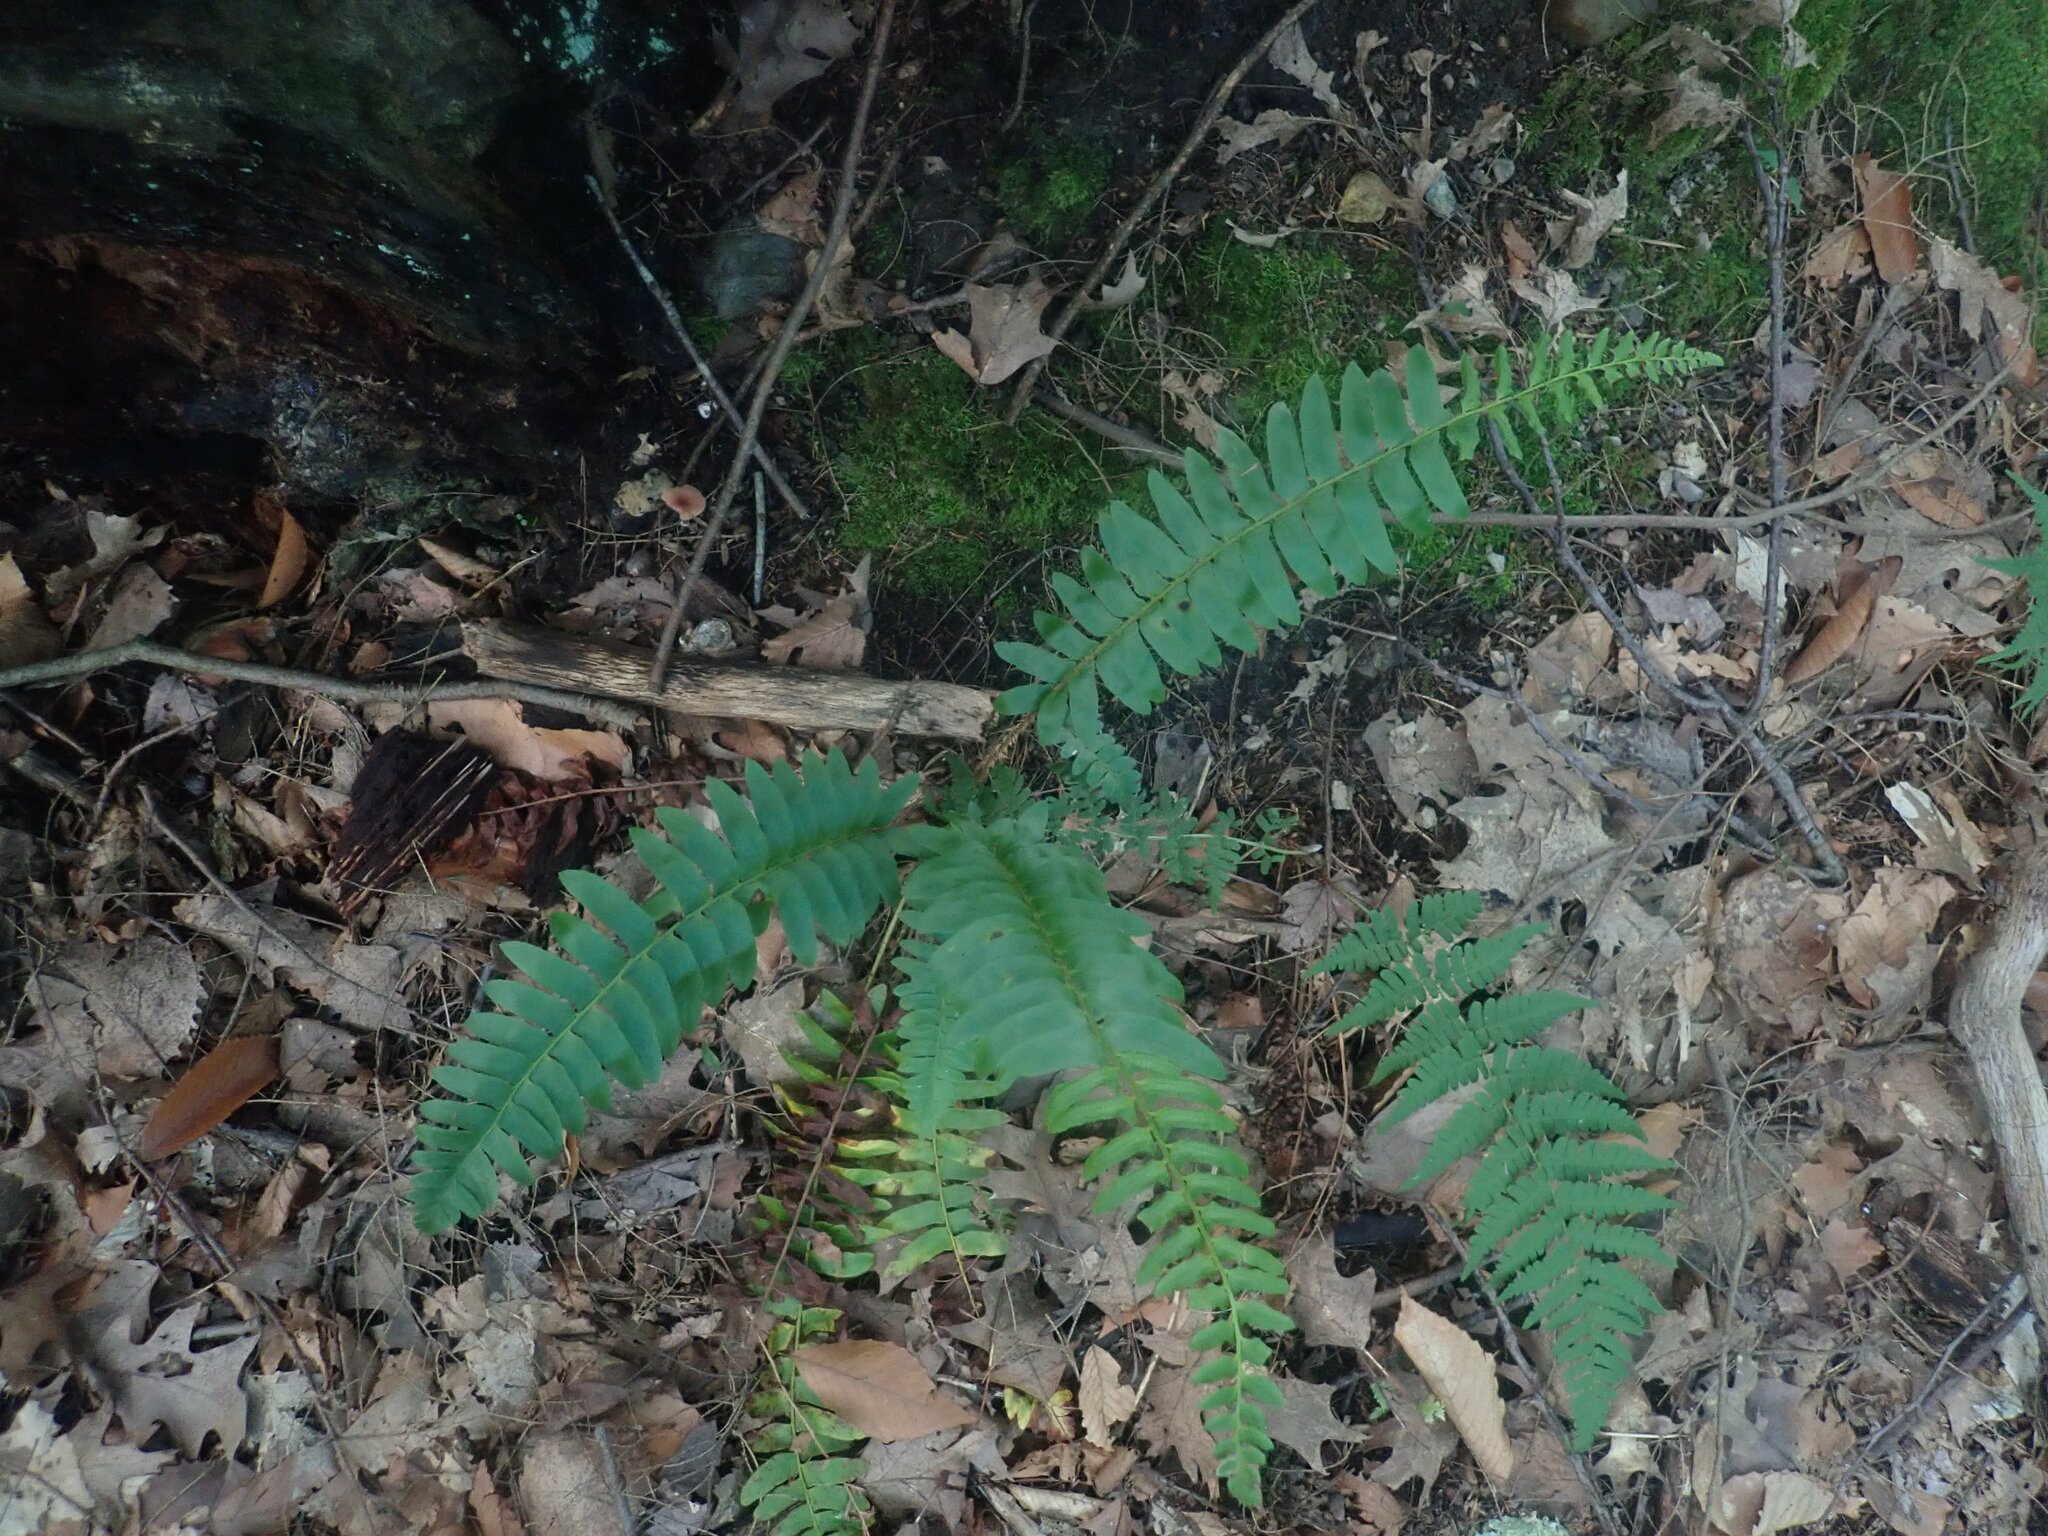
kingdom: Plantae
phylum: Tracheophyta
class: Polypodiopsida
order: Polypodiales
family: Dryopteridaceae
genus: Polystichum
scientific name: Polystichum acrostichoides
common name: Christmas fern
